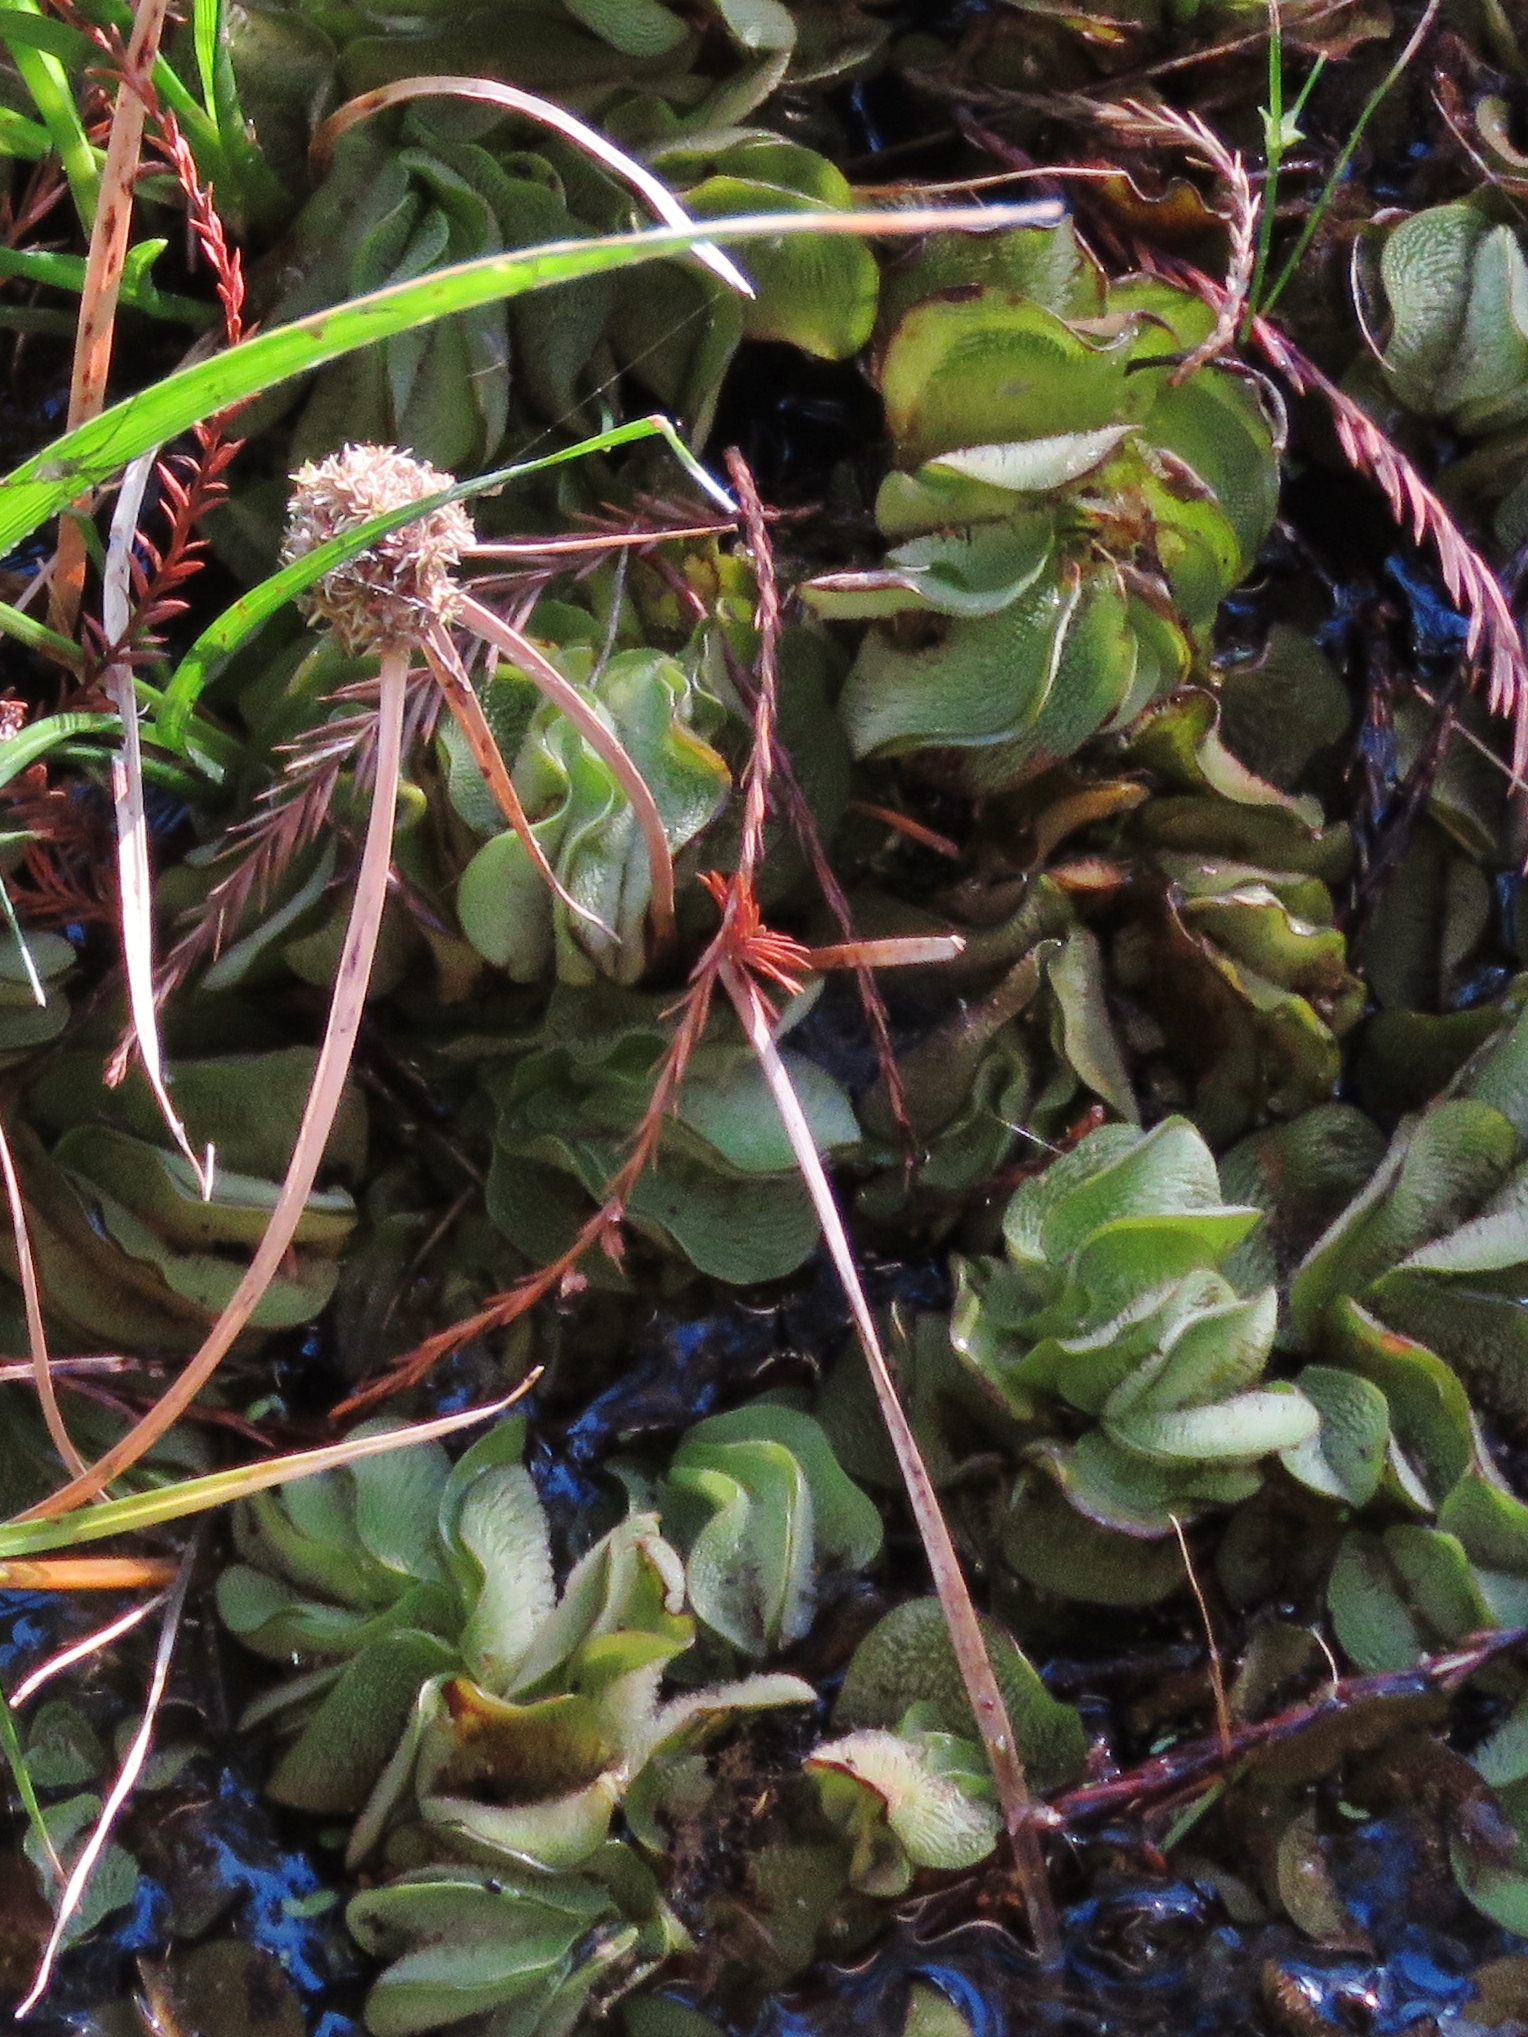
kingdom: Plantae
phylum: Tracheophyta
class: Polypodiopsida
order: Salviniales
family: Salviniaceae
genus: Salvinia
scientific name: Salvinia molesta
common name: Kariba weed
